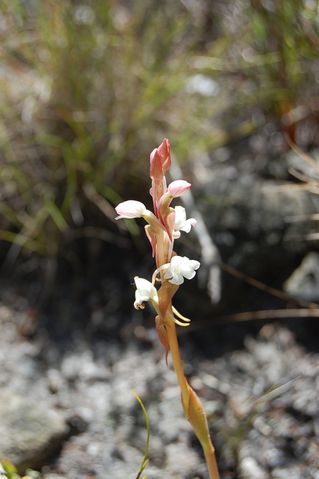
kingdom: Plantae
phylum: Tracheophyta
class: Liliopsida
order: Asparagales
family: Orchidaceae
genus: Satyrium
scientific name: Satyrium acuminatum
